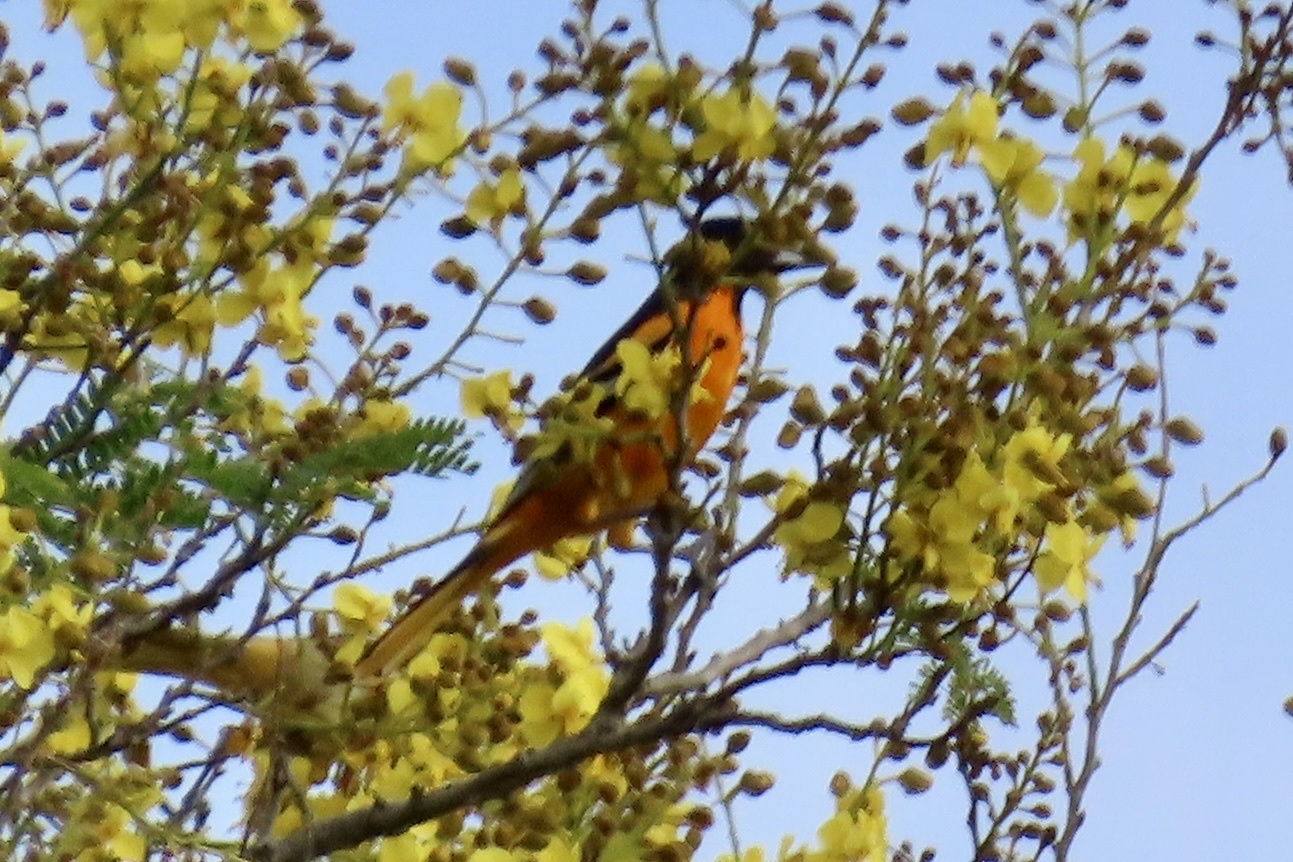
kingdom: Animalia
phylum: Chordata
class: Aves
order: Passeriformes
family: Icteridae
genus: Icterus
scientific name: Icterus galbula
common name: Baltimore oriole
